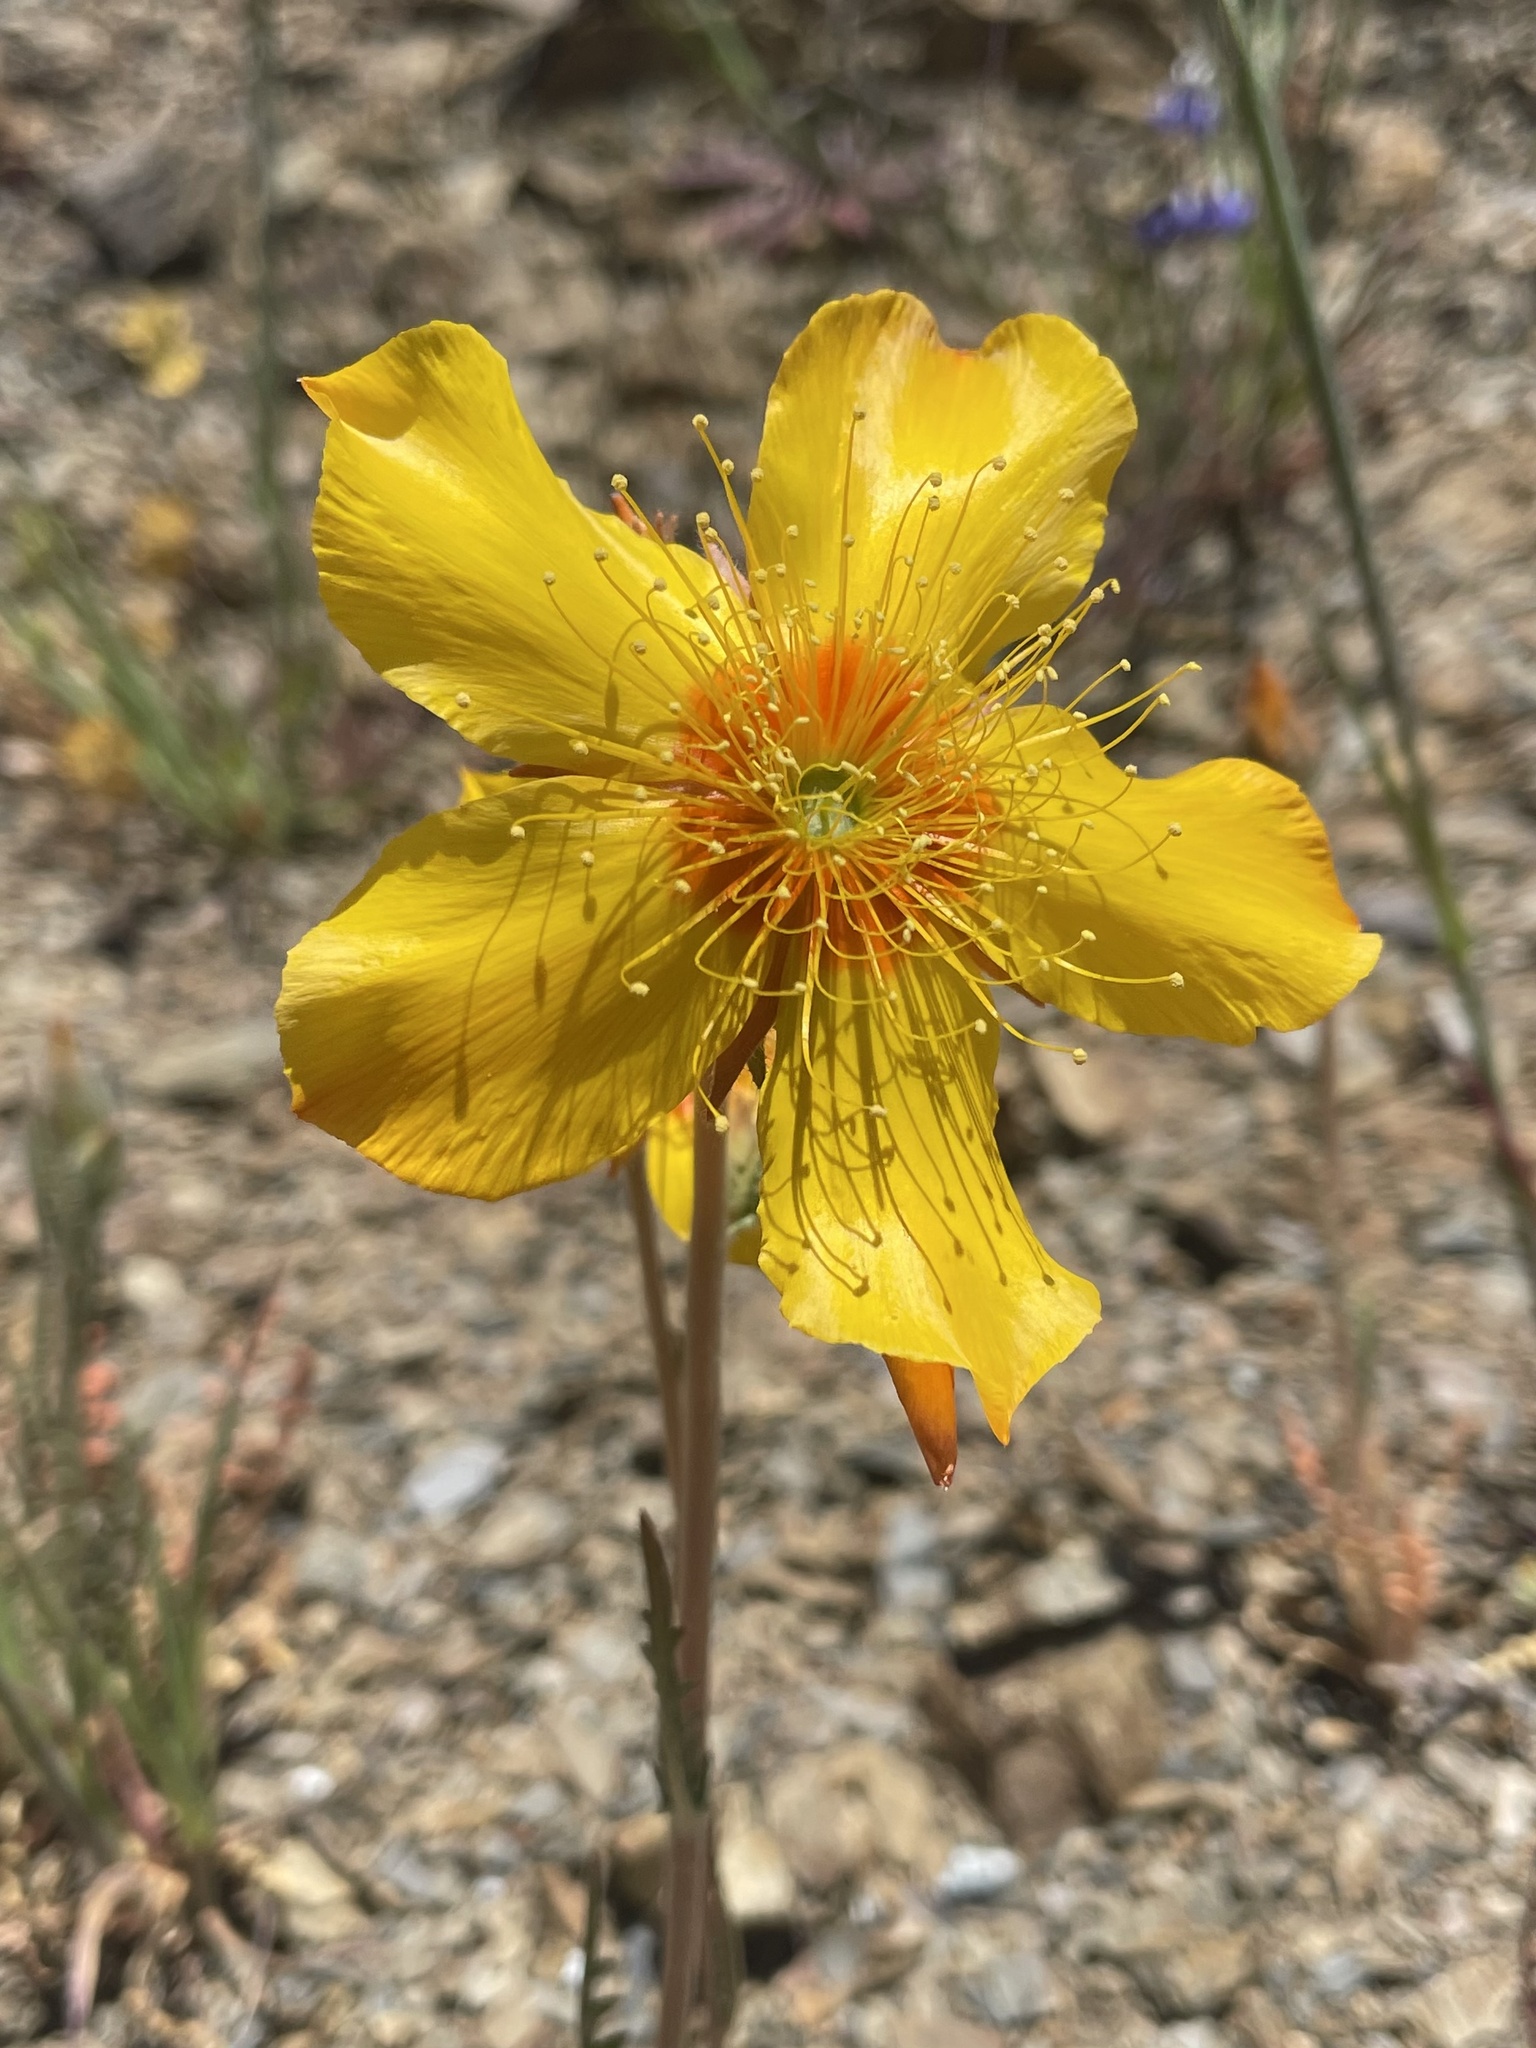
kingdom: Plantae
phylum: Tracheophyta
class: Magnoliopsida
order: Cornales
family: Loasaceae
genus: Mentzelia
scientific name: Mentzelia lindleyi
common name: Golden bartonia
